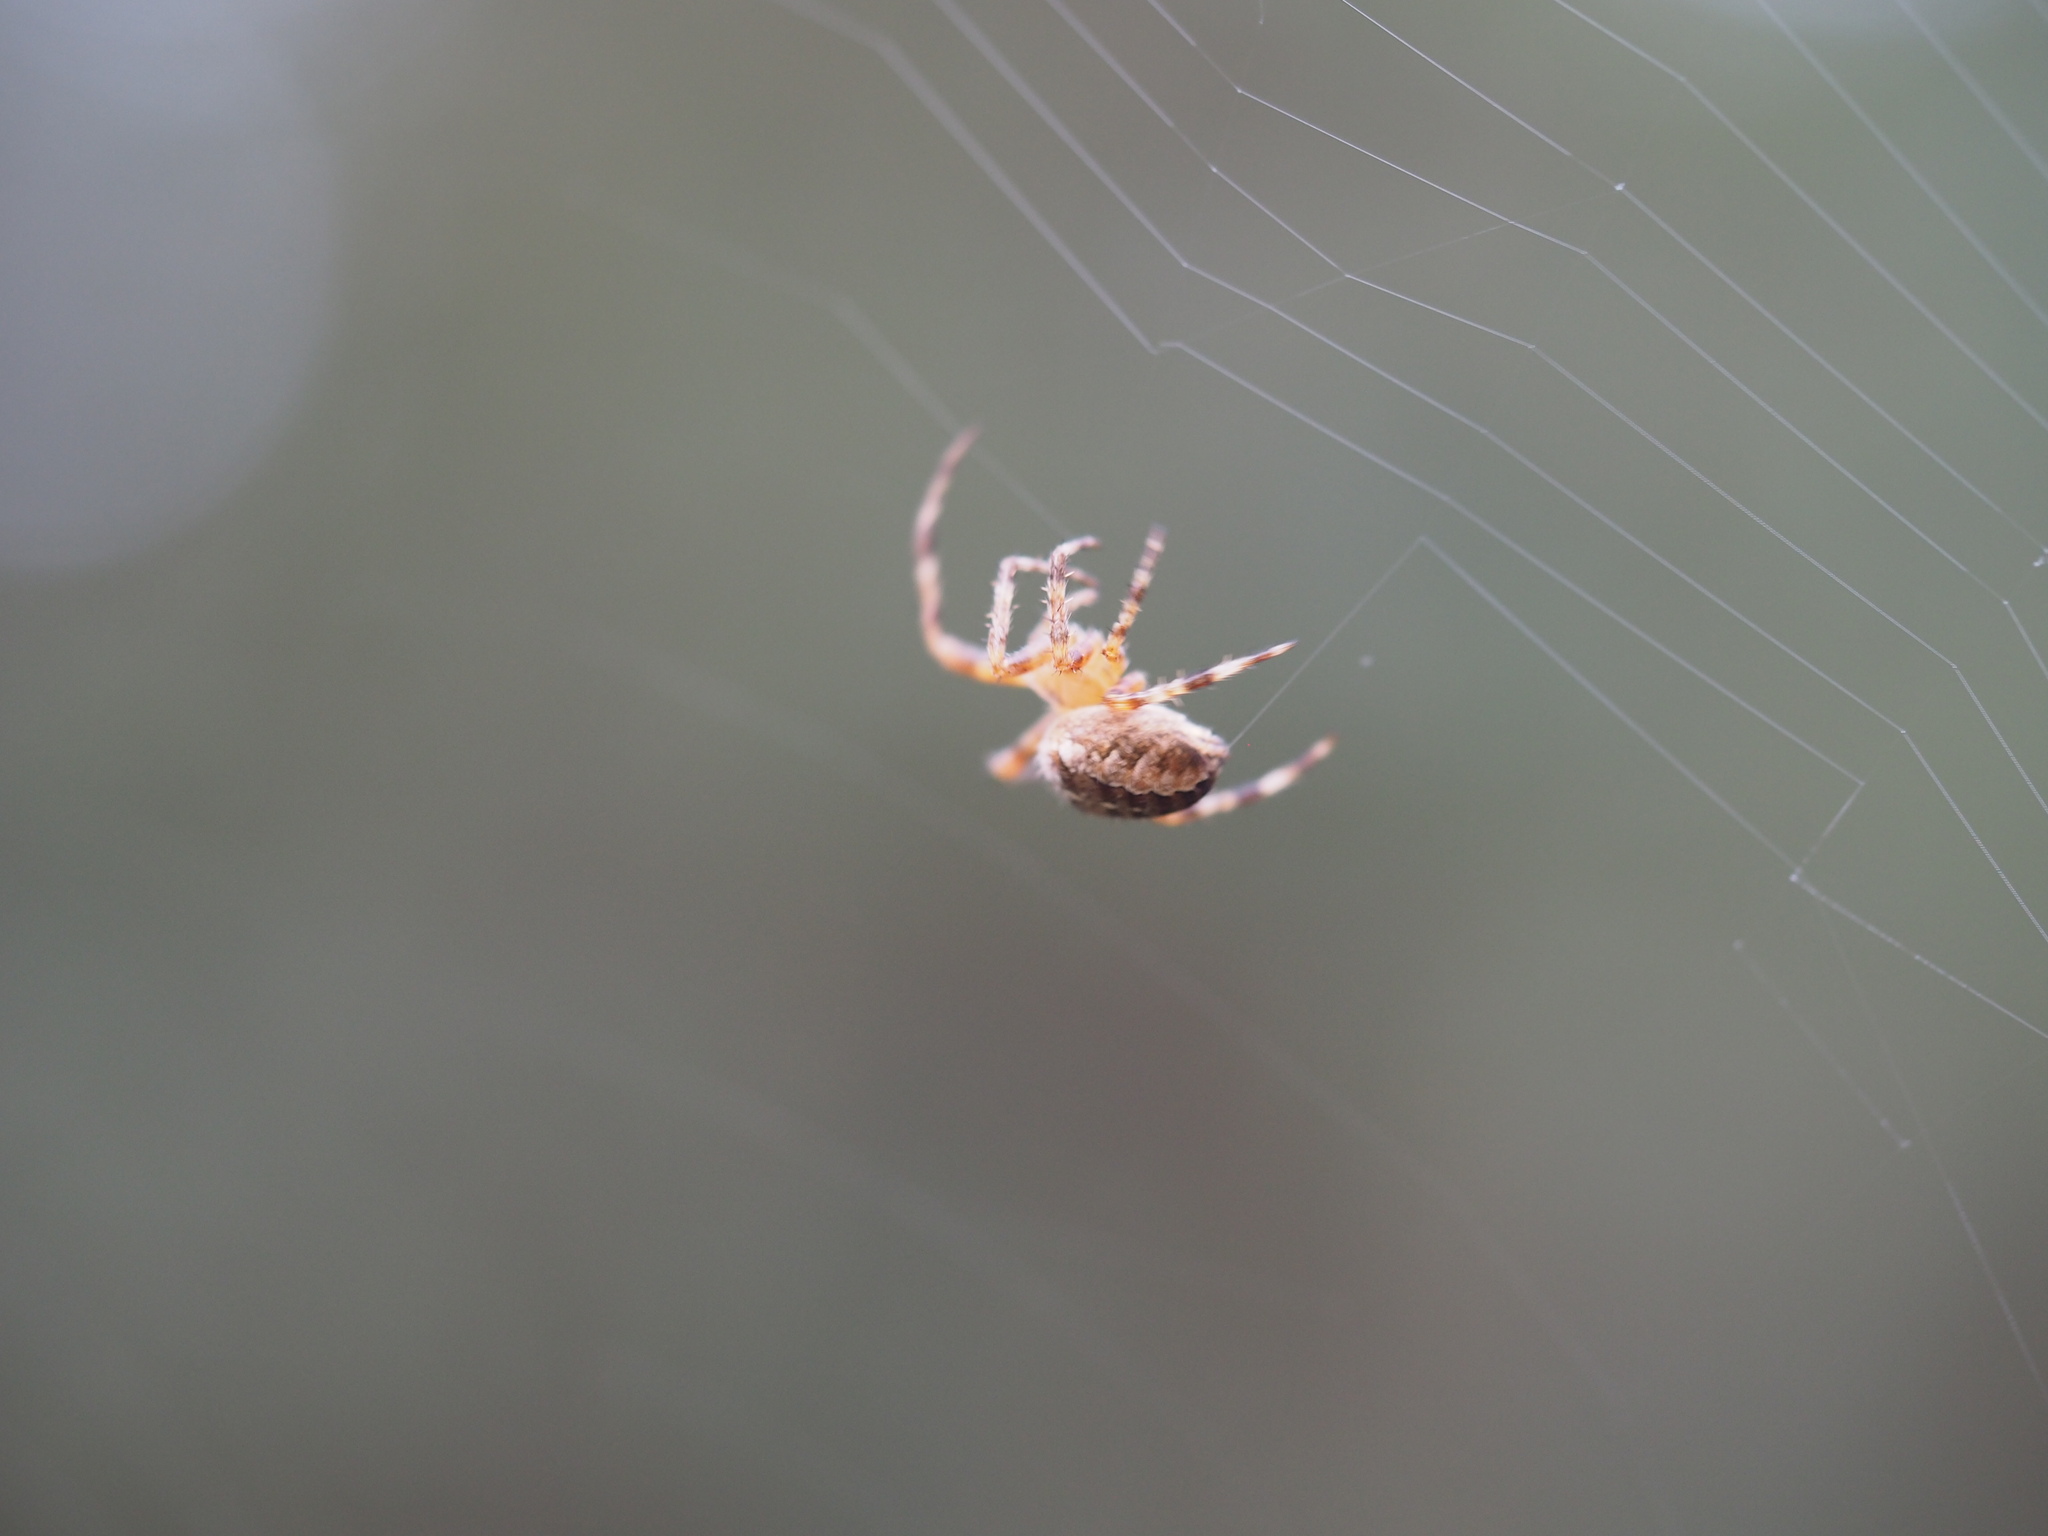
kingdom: Animalia
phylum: Arthropoda
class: Arachnida
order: Araneae
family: Araneidae
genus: Araneus
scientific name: Araneus diadematus
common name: Cross orbweaver
